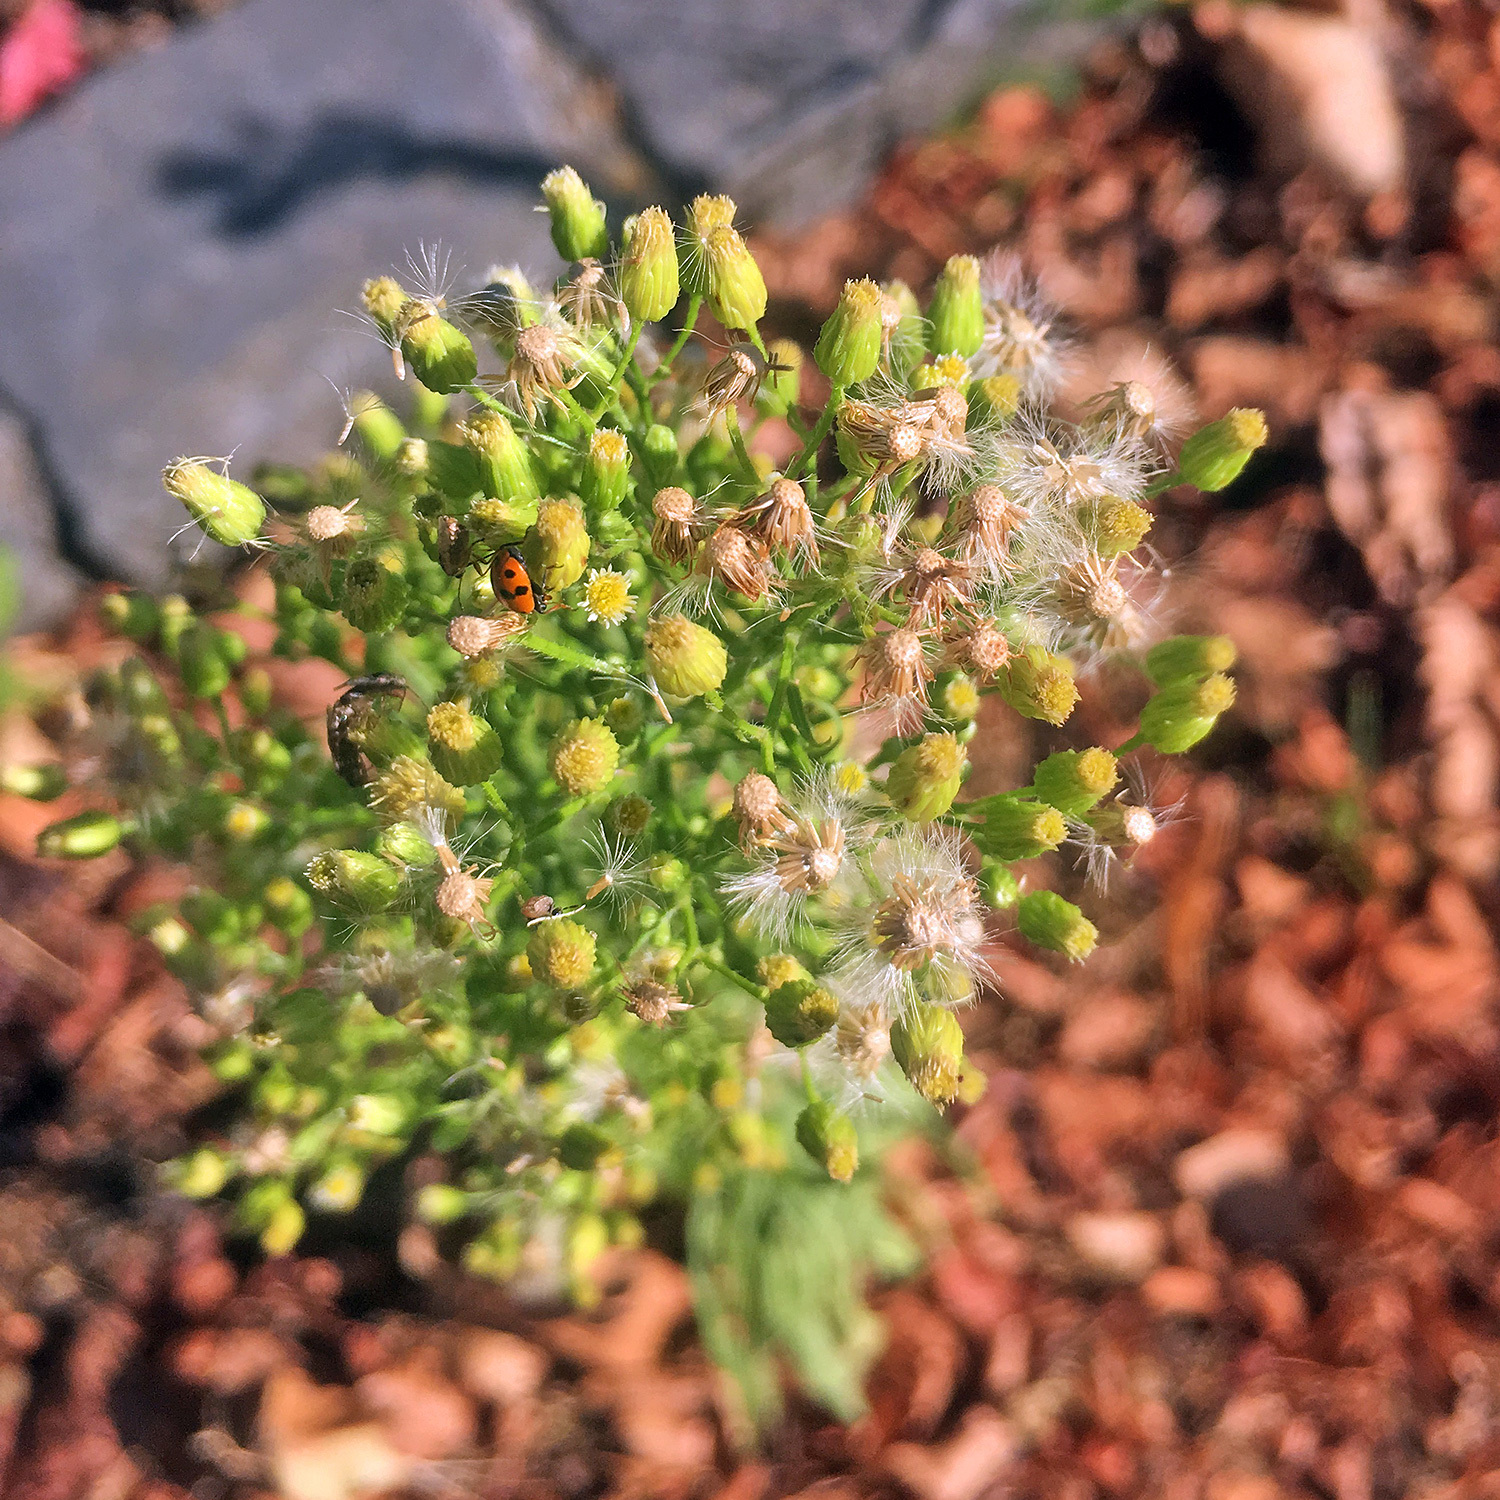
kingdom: Plantae
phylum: Tracheophyta
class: Magnoliopsida
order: Asterales
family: Asteraceae
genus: Erigeron
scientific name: Erigeron canadensis
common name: Canadian fleabane
